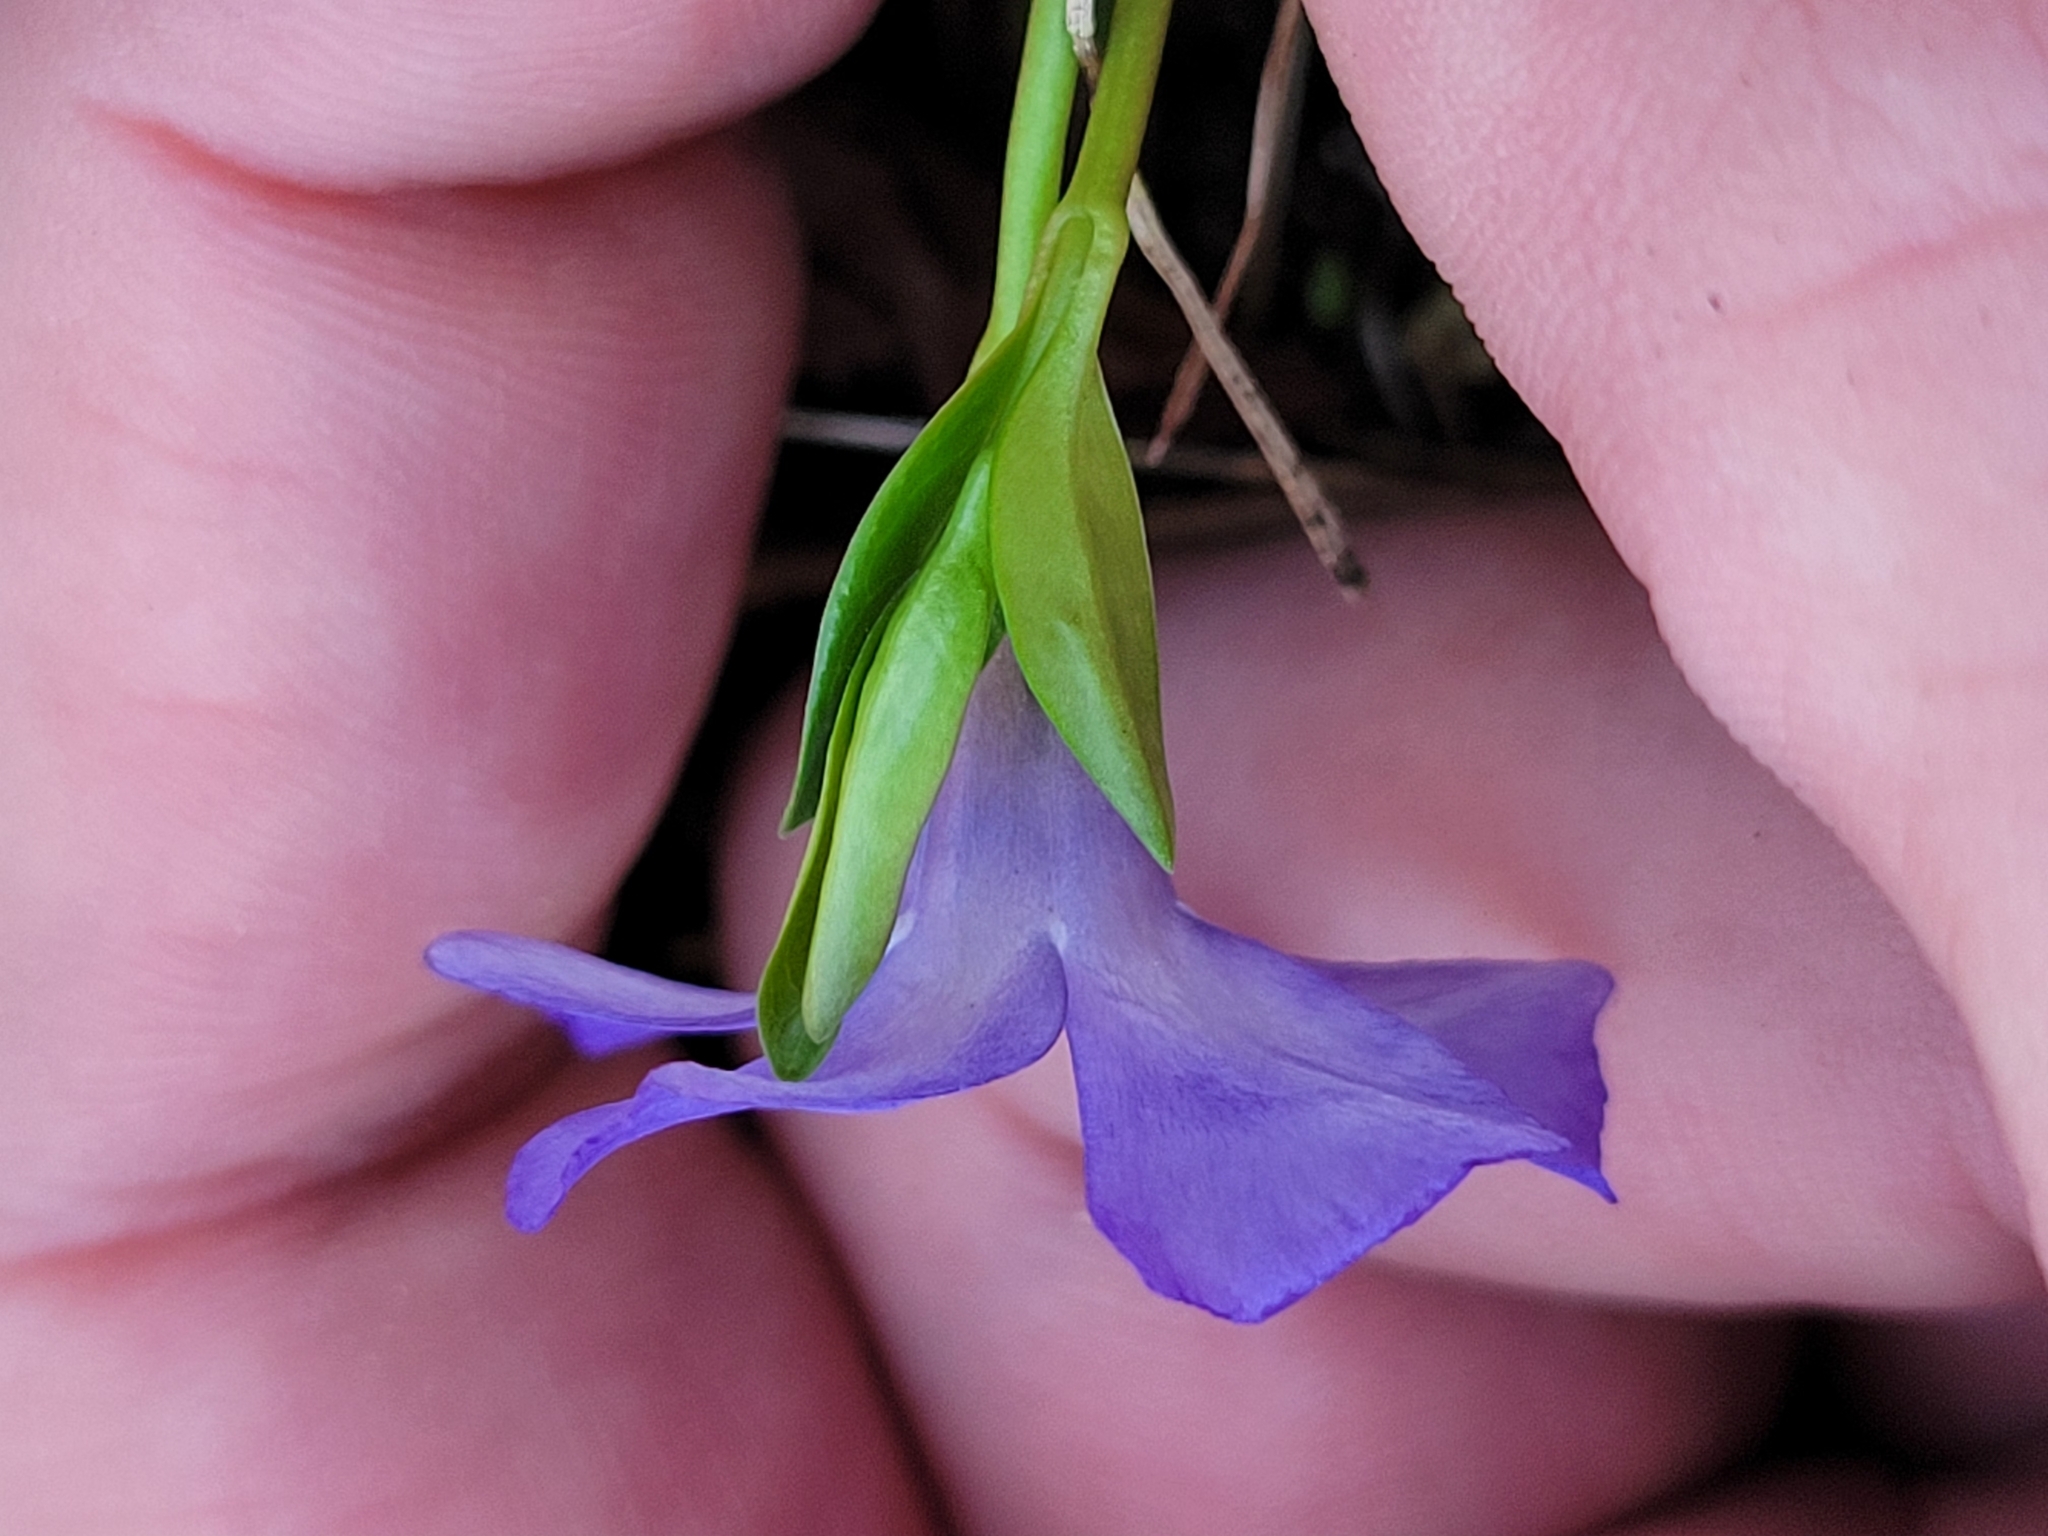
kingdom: Plantae
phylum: Tracheophyta
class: Magnoliopsida
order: Gentianales
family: Apocynaceae
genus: Vinca
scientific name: Vinca minor
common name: Lesser periwinkle
